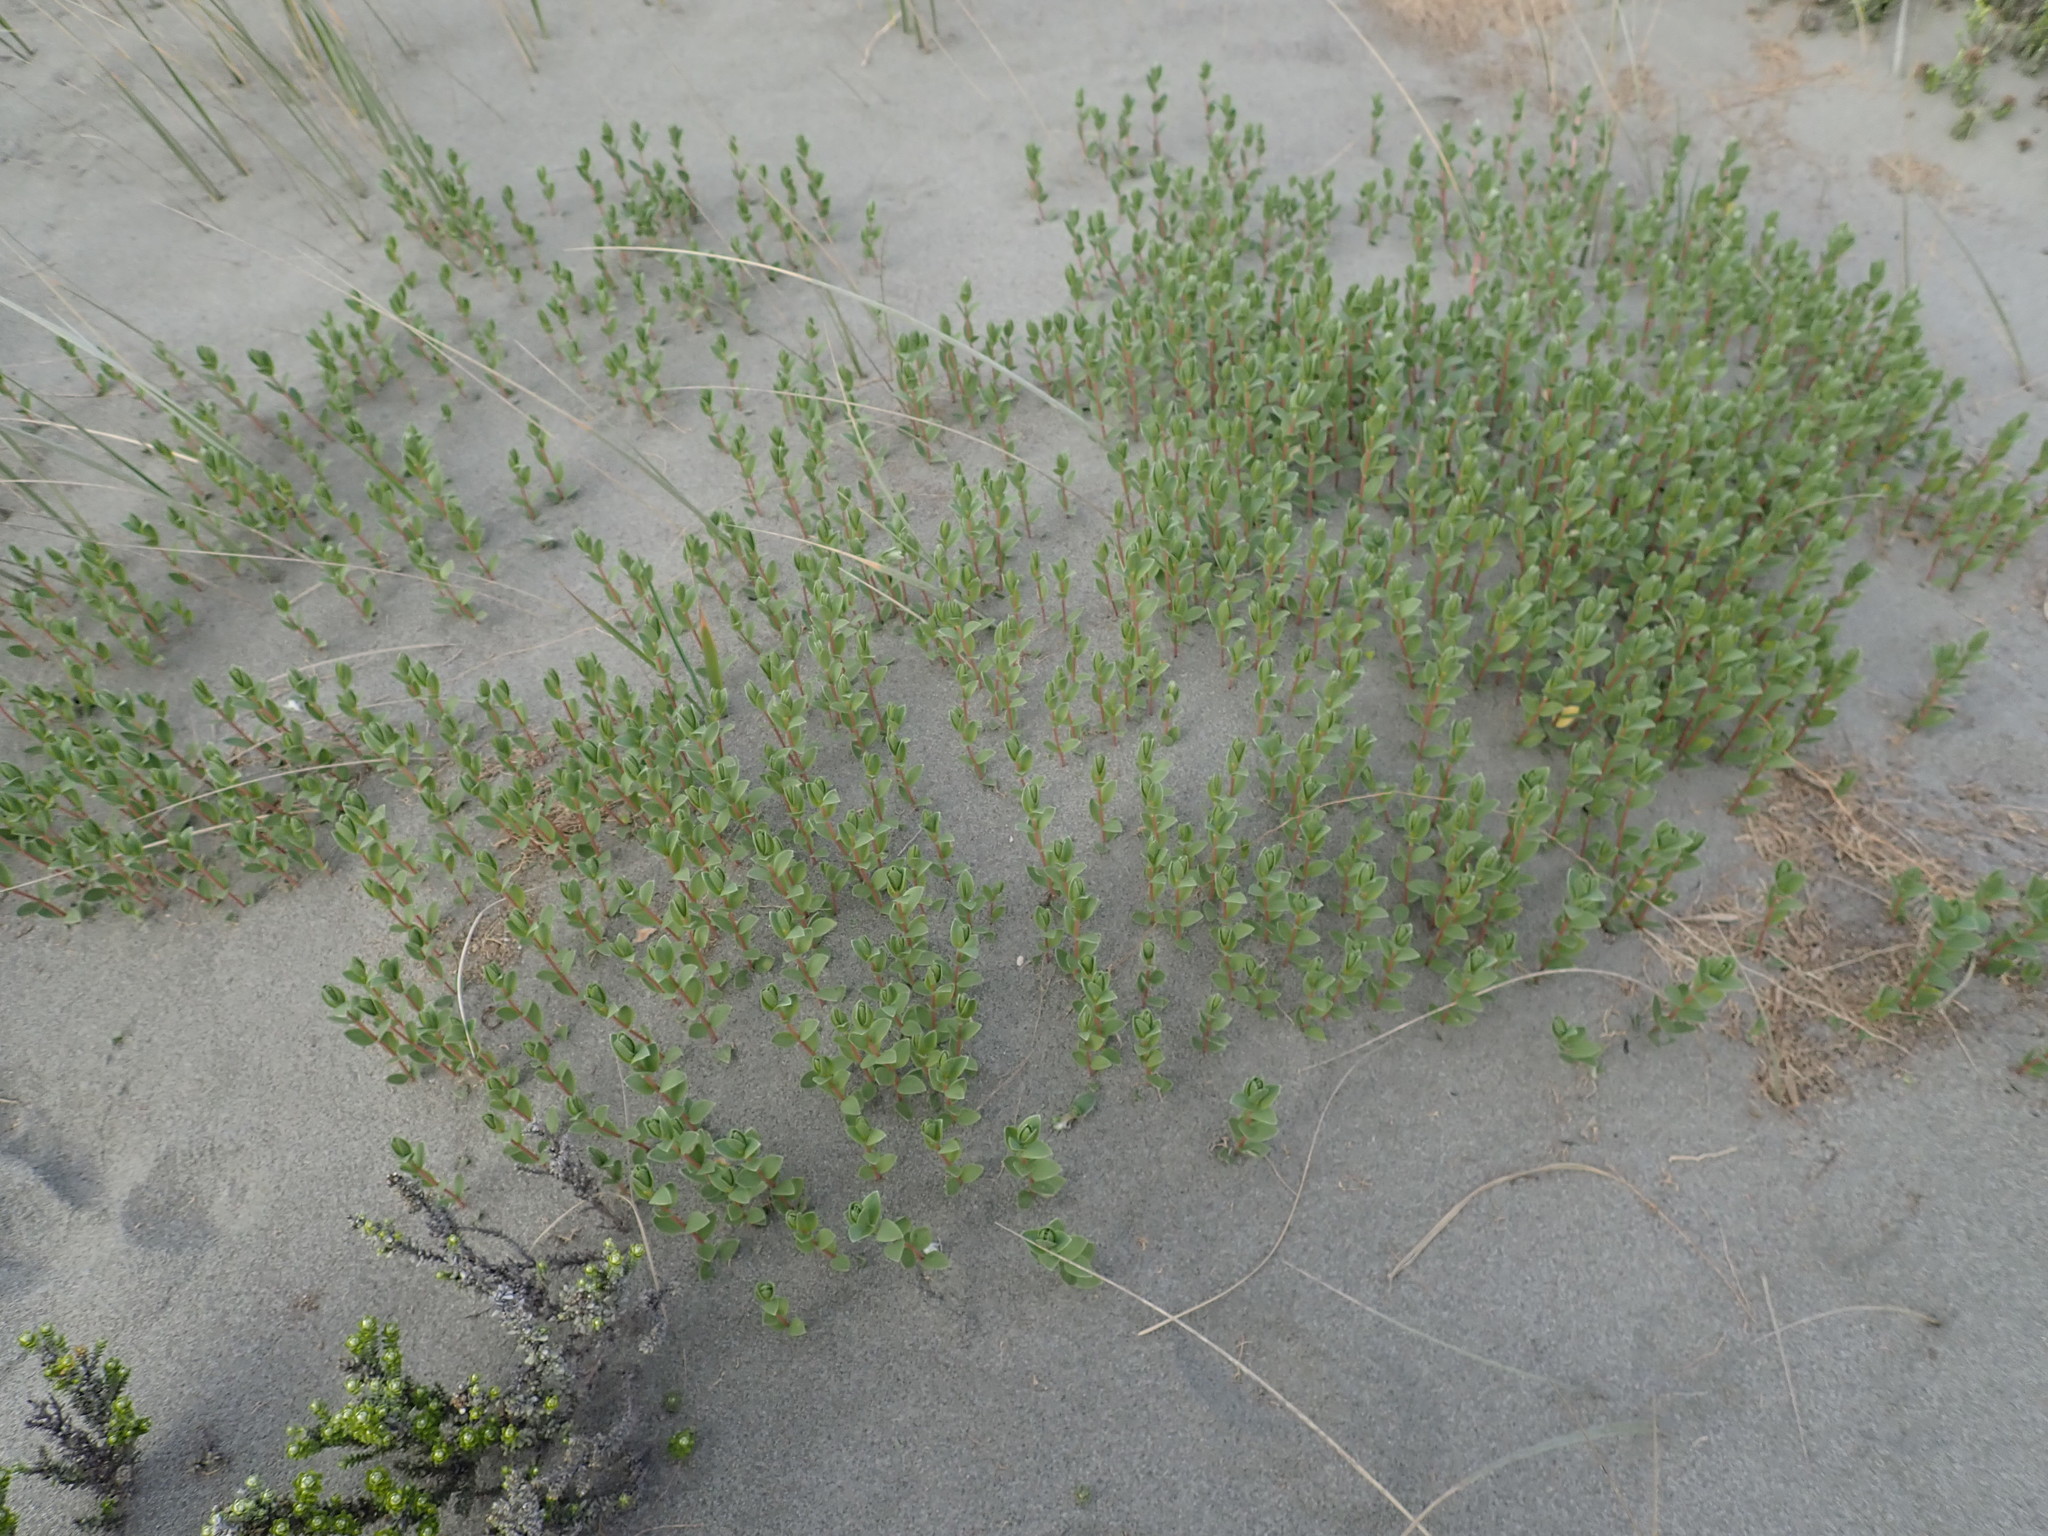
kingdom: Plantae
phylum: Tracheophyta
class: Magnoliopsida
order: Malvales
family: Thymelaeaceae
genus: Pimelea
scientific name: Pimelea villosa
